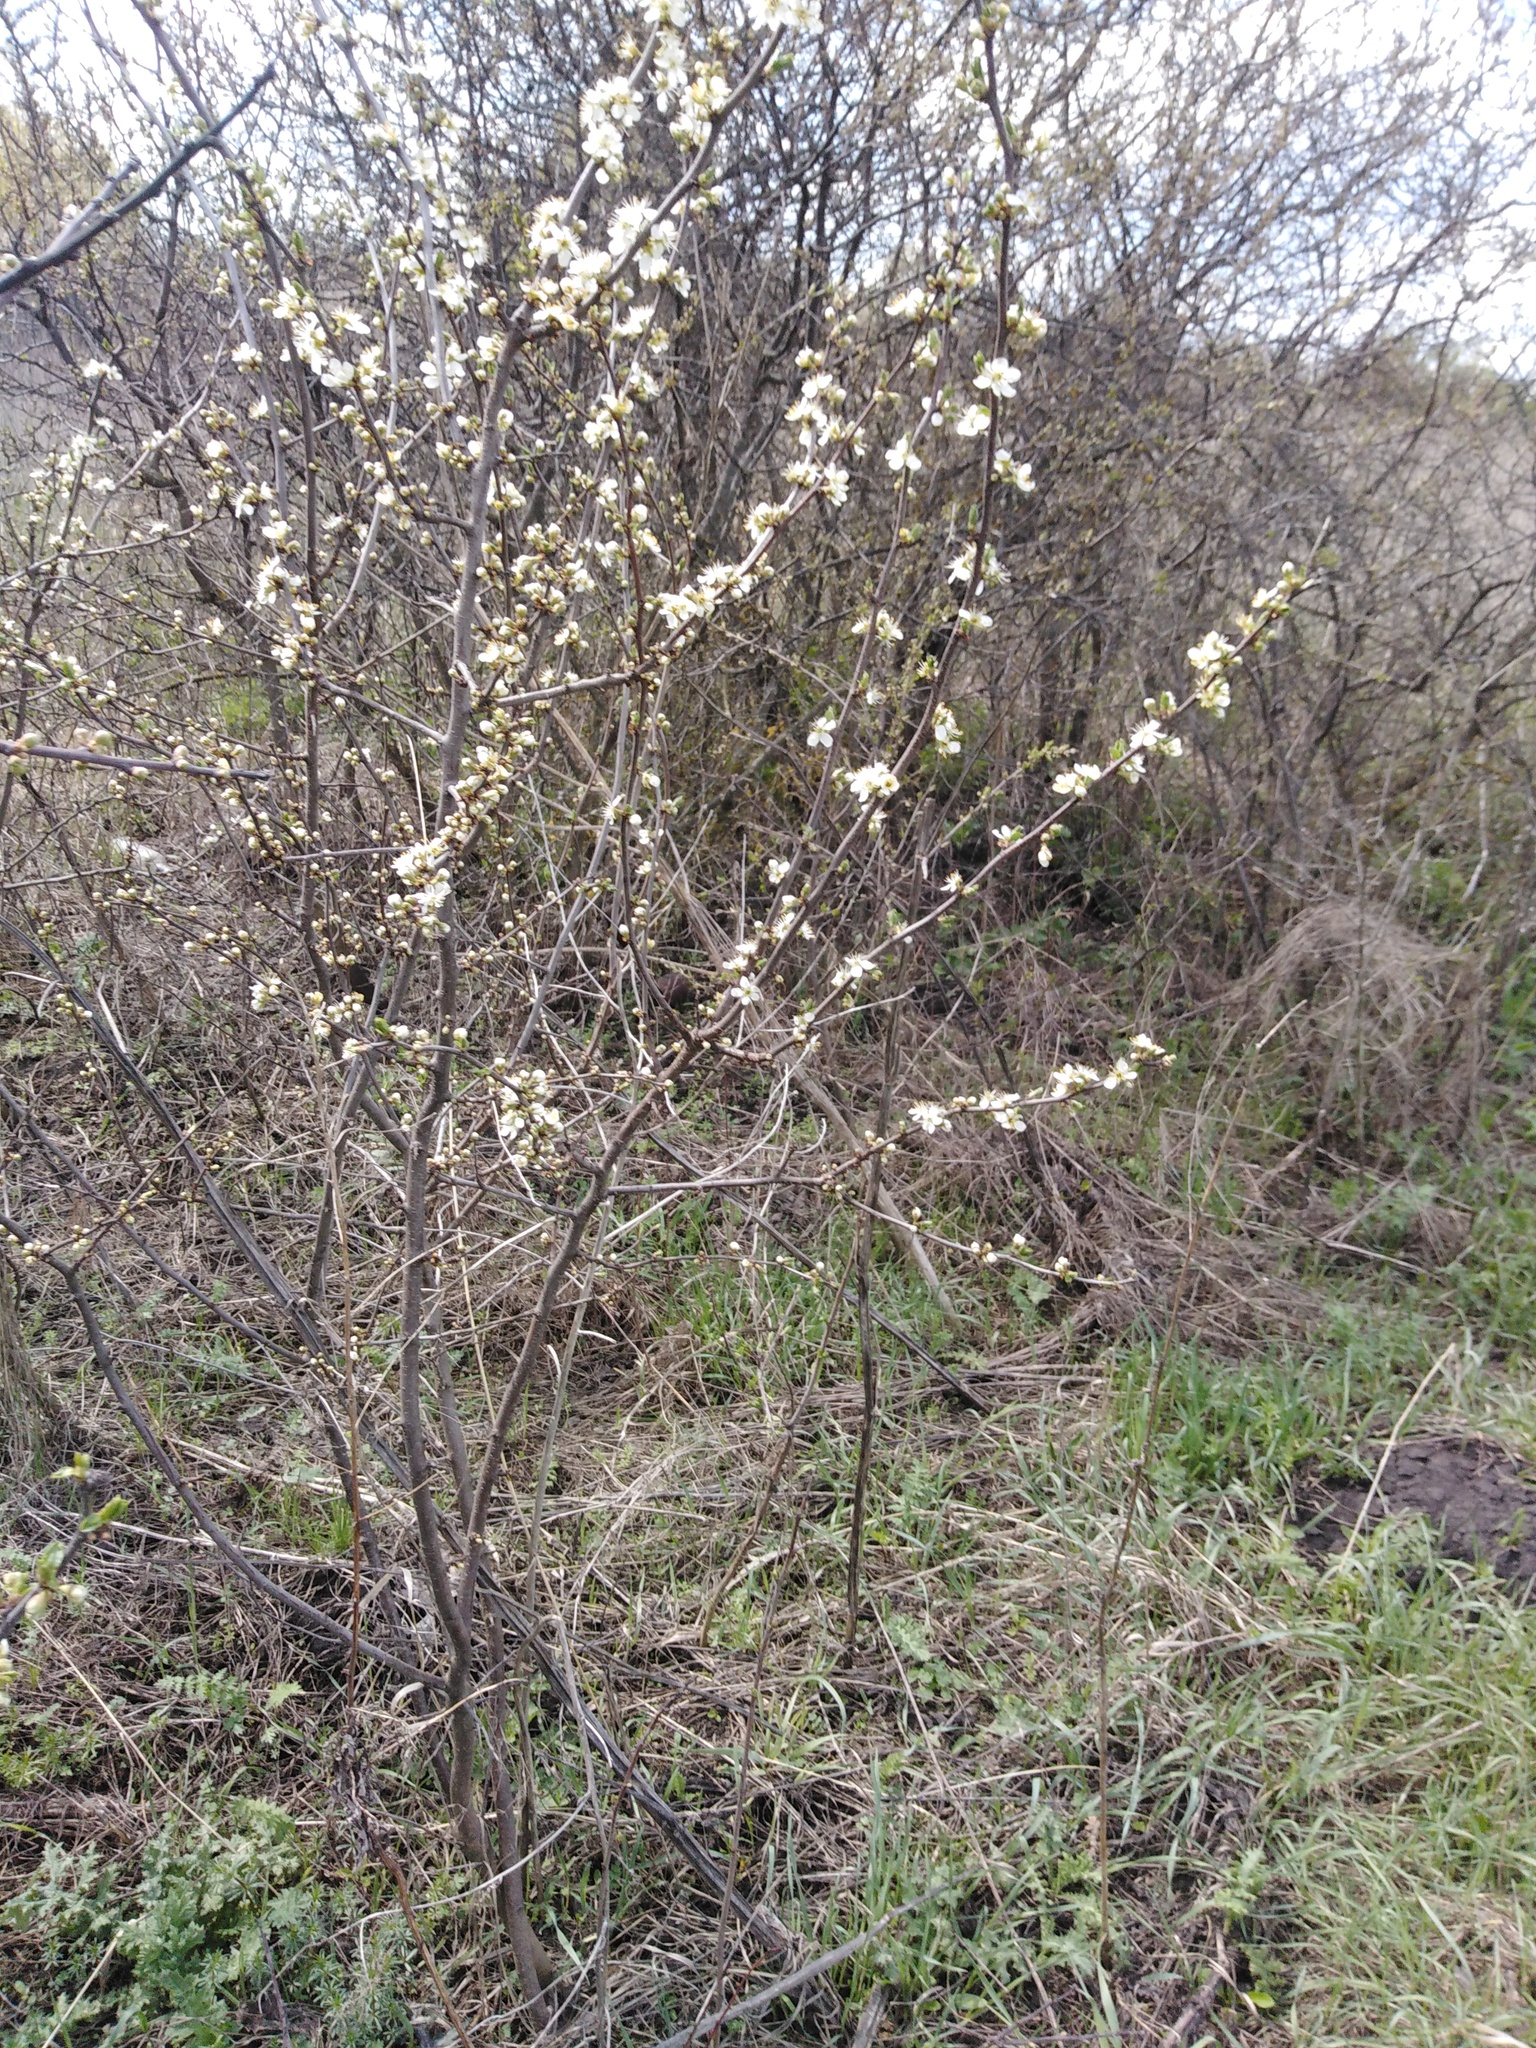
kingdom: Plantae
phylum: Tracheophyta
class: Magnoliopsida
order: Rosales
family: Rosaceae
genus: Prunus
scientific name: Prunus spinosa
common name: Blackthorn
